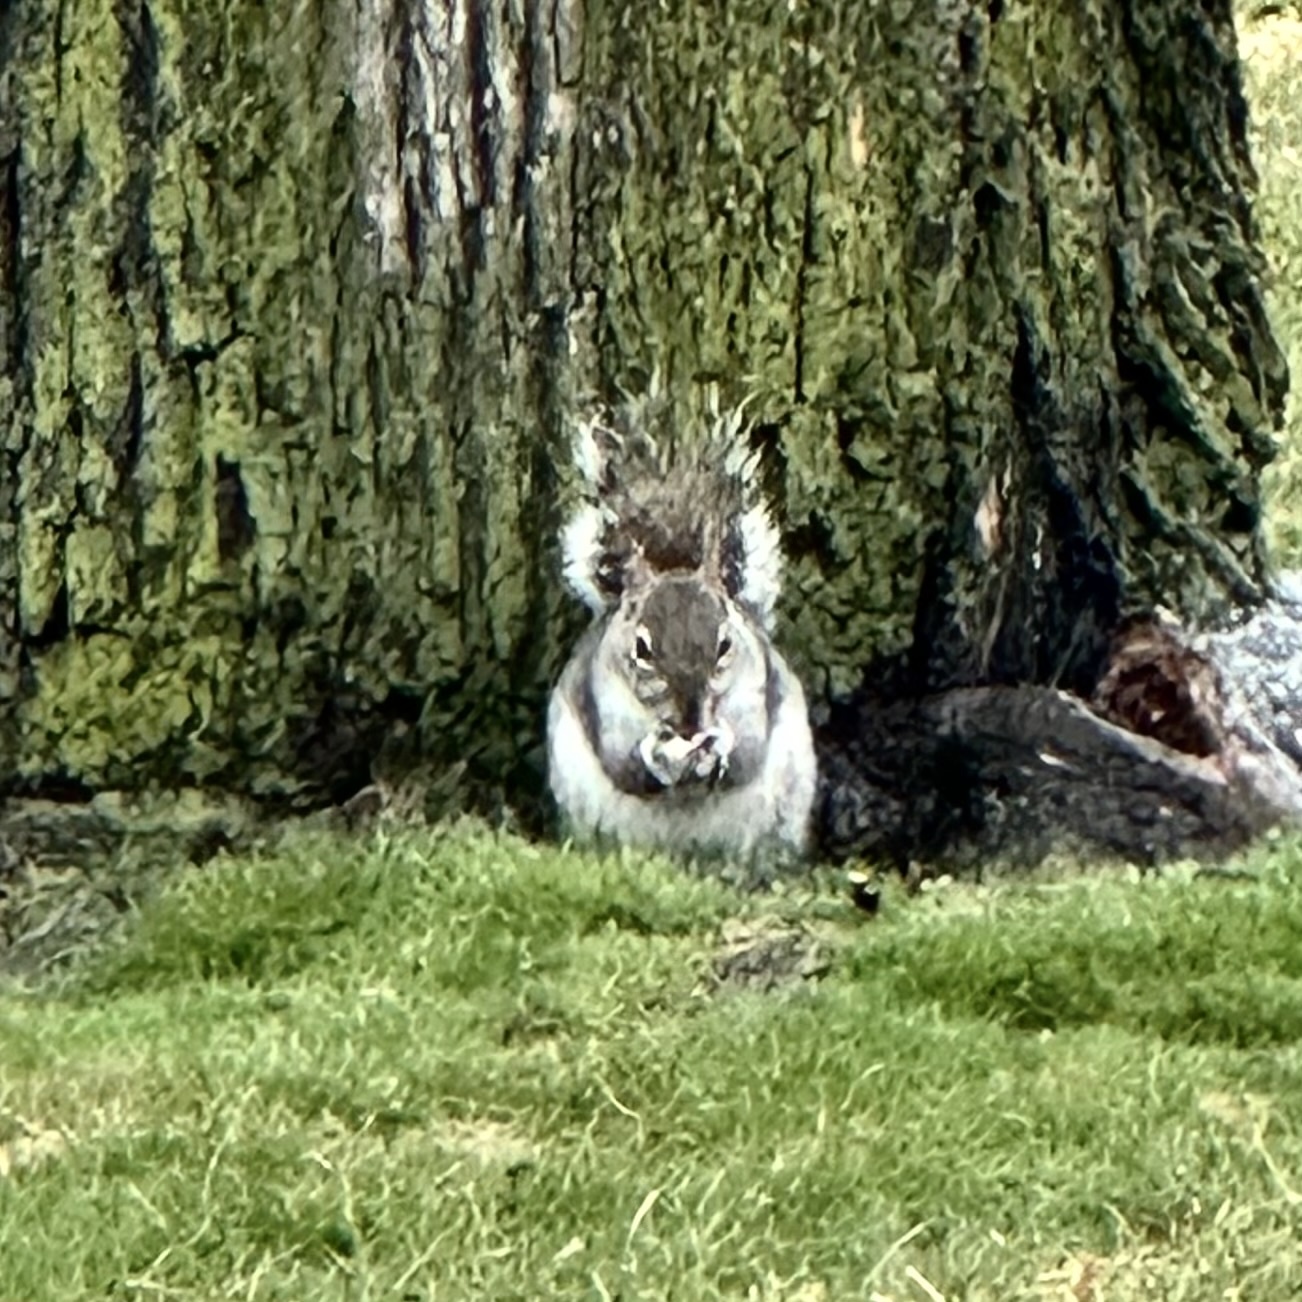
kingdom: Animalia
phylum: Chordata
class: Mammalia
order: Rodentia
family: Sciuridae
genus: Sciurus
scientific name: Sciurus carolinensis
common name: Eastern gray squirrel
